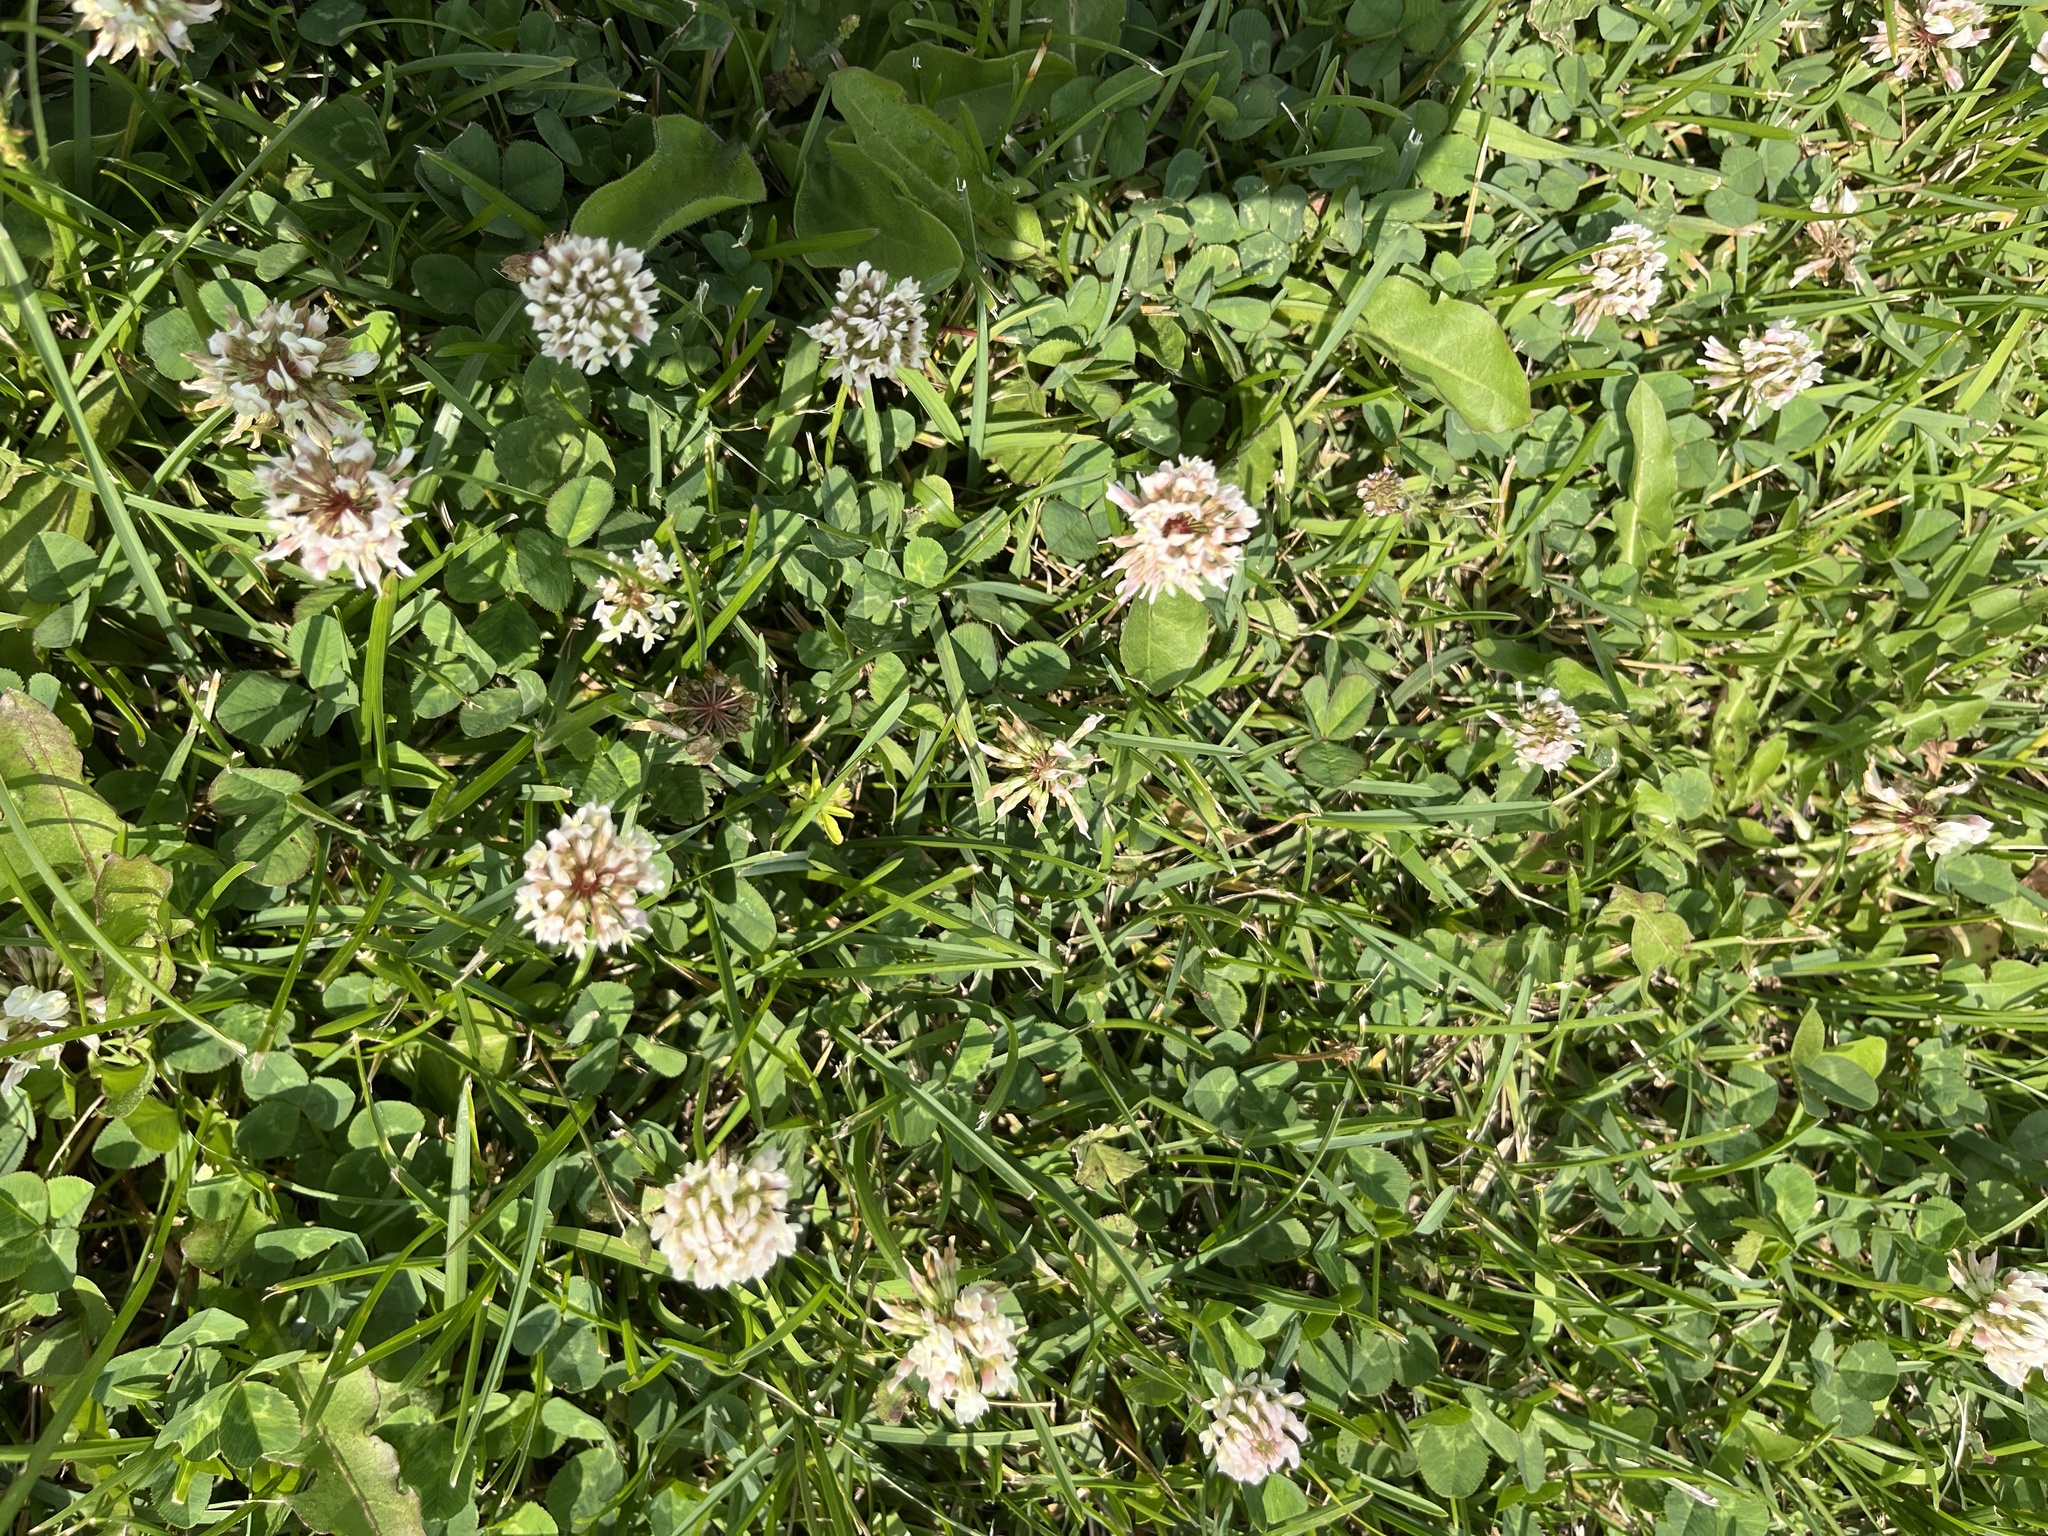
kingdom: Plantae
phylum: Tracheophyta
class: Magnoliopsida
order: Fabales
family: Fabaceae
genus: Trifolium
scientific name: Trifolium repens
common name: White clover
